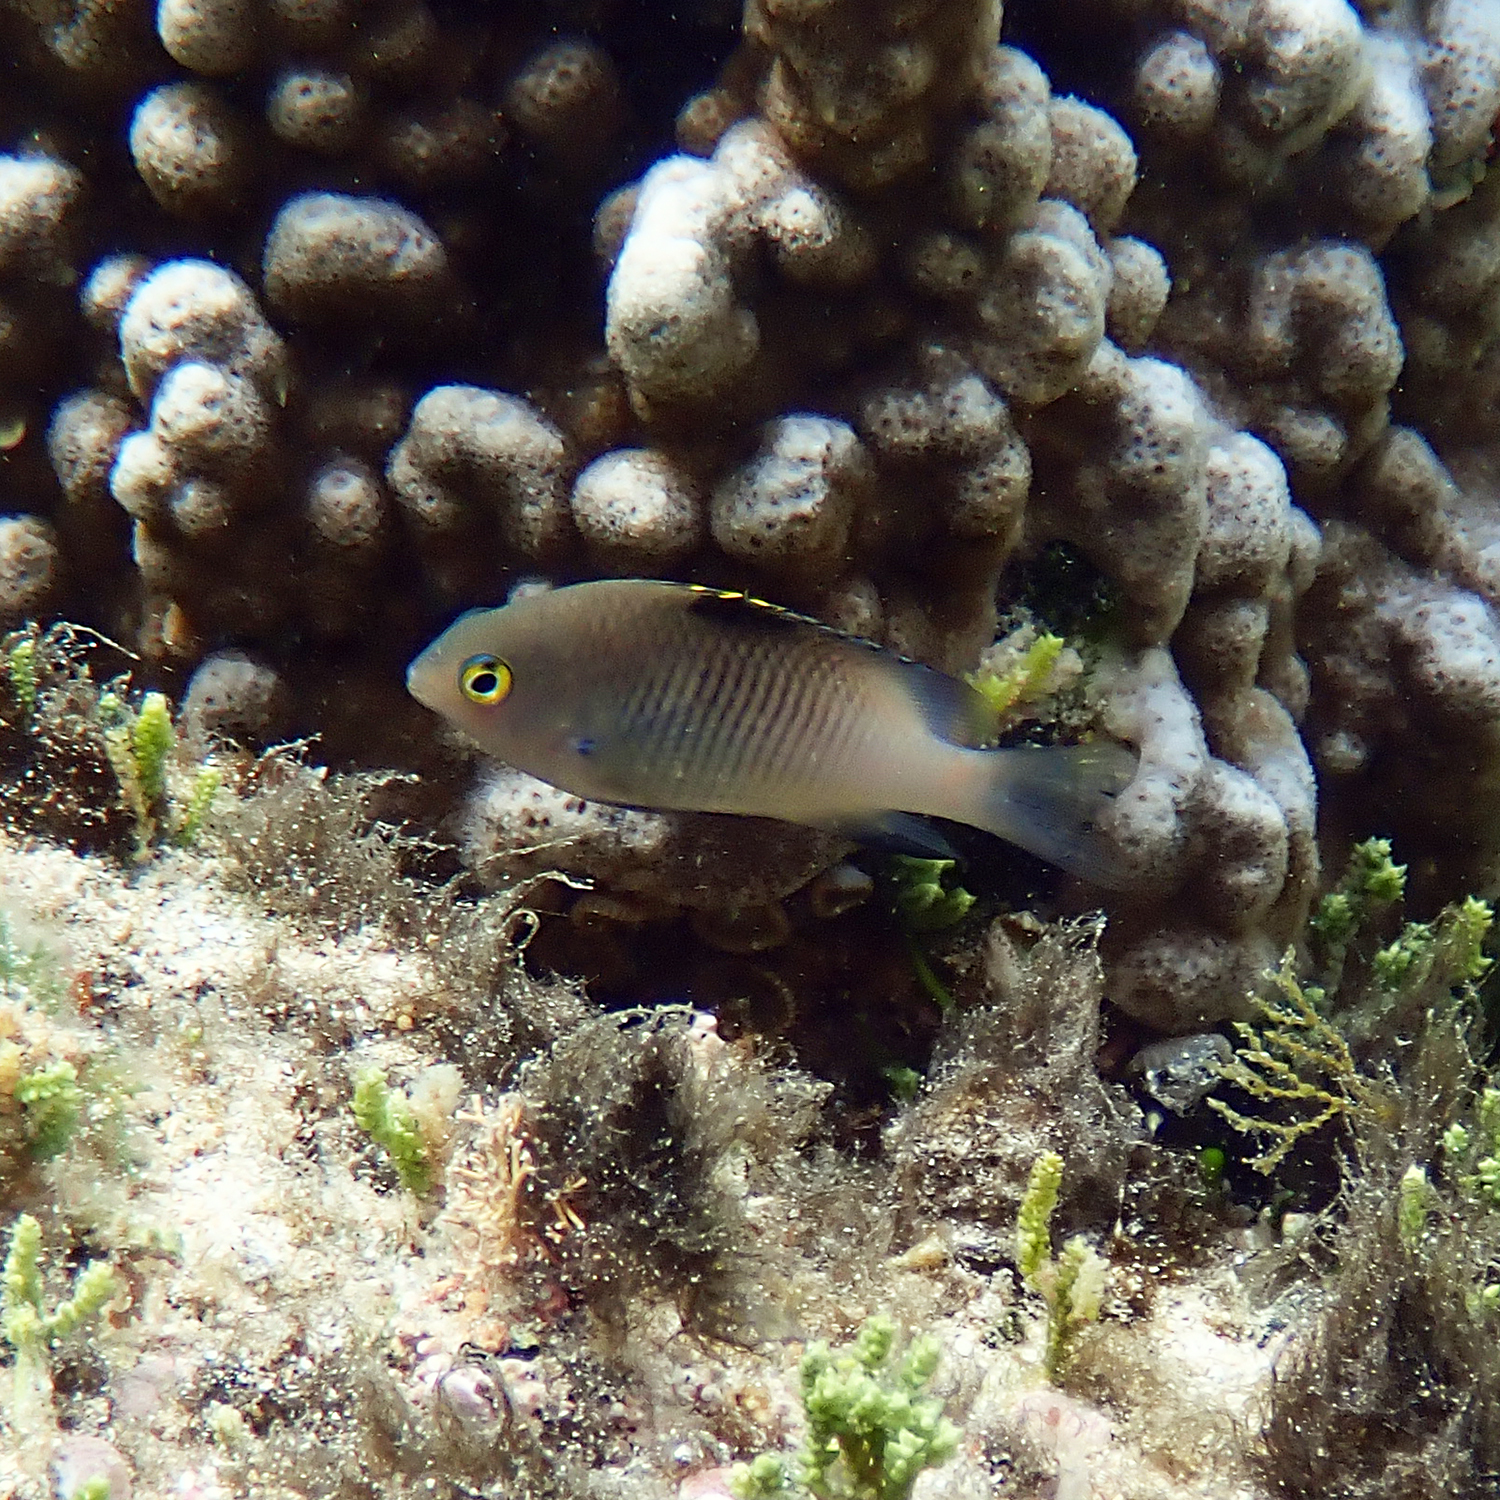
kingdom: Animalia
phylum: Chordata
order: Perciformes
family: Pomacentridae
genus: Stegastes
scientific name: Stegastes fasciolatus
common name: Pacific gregory
